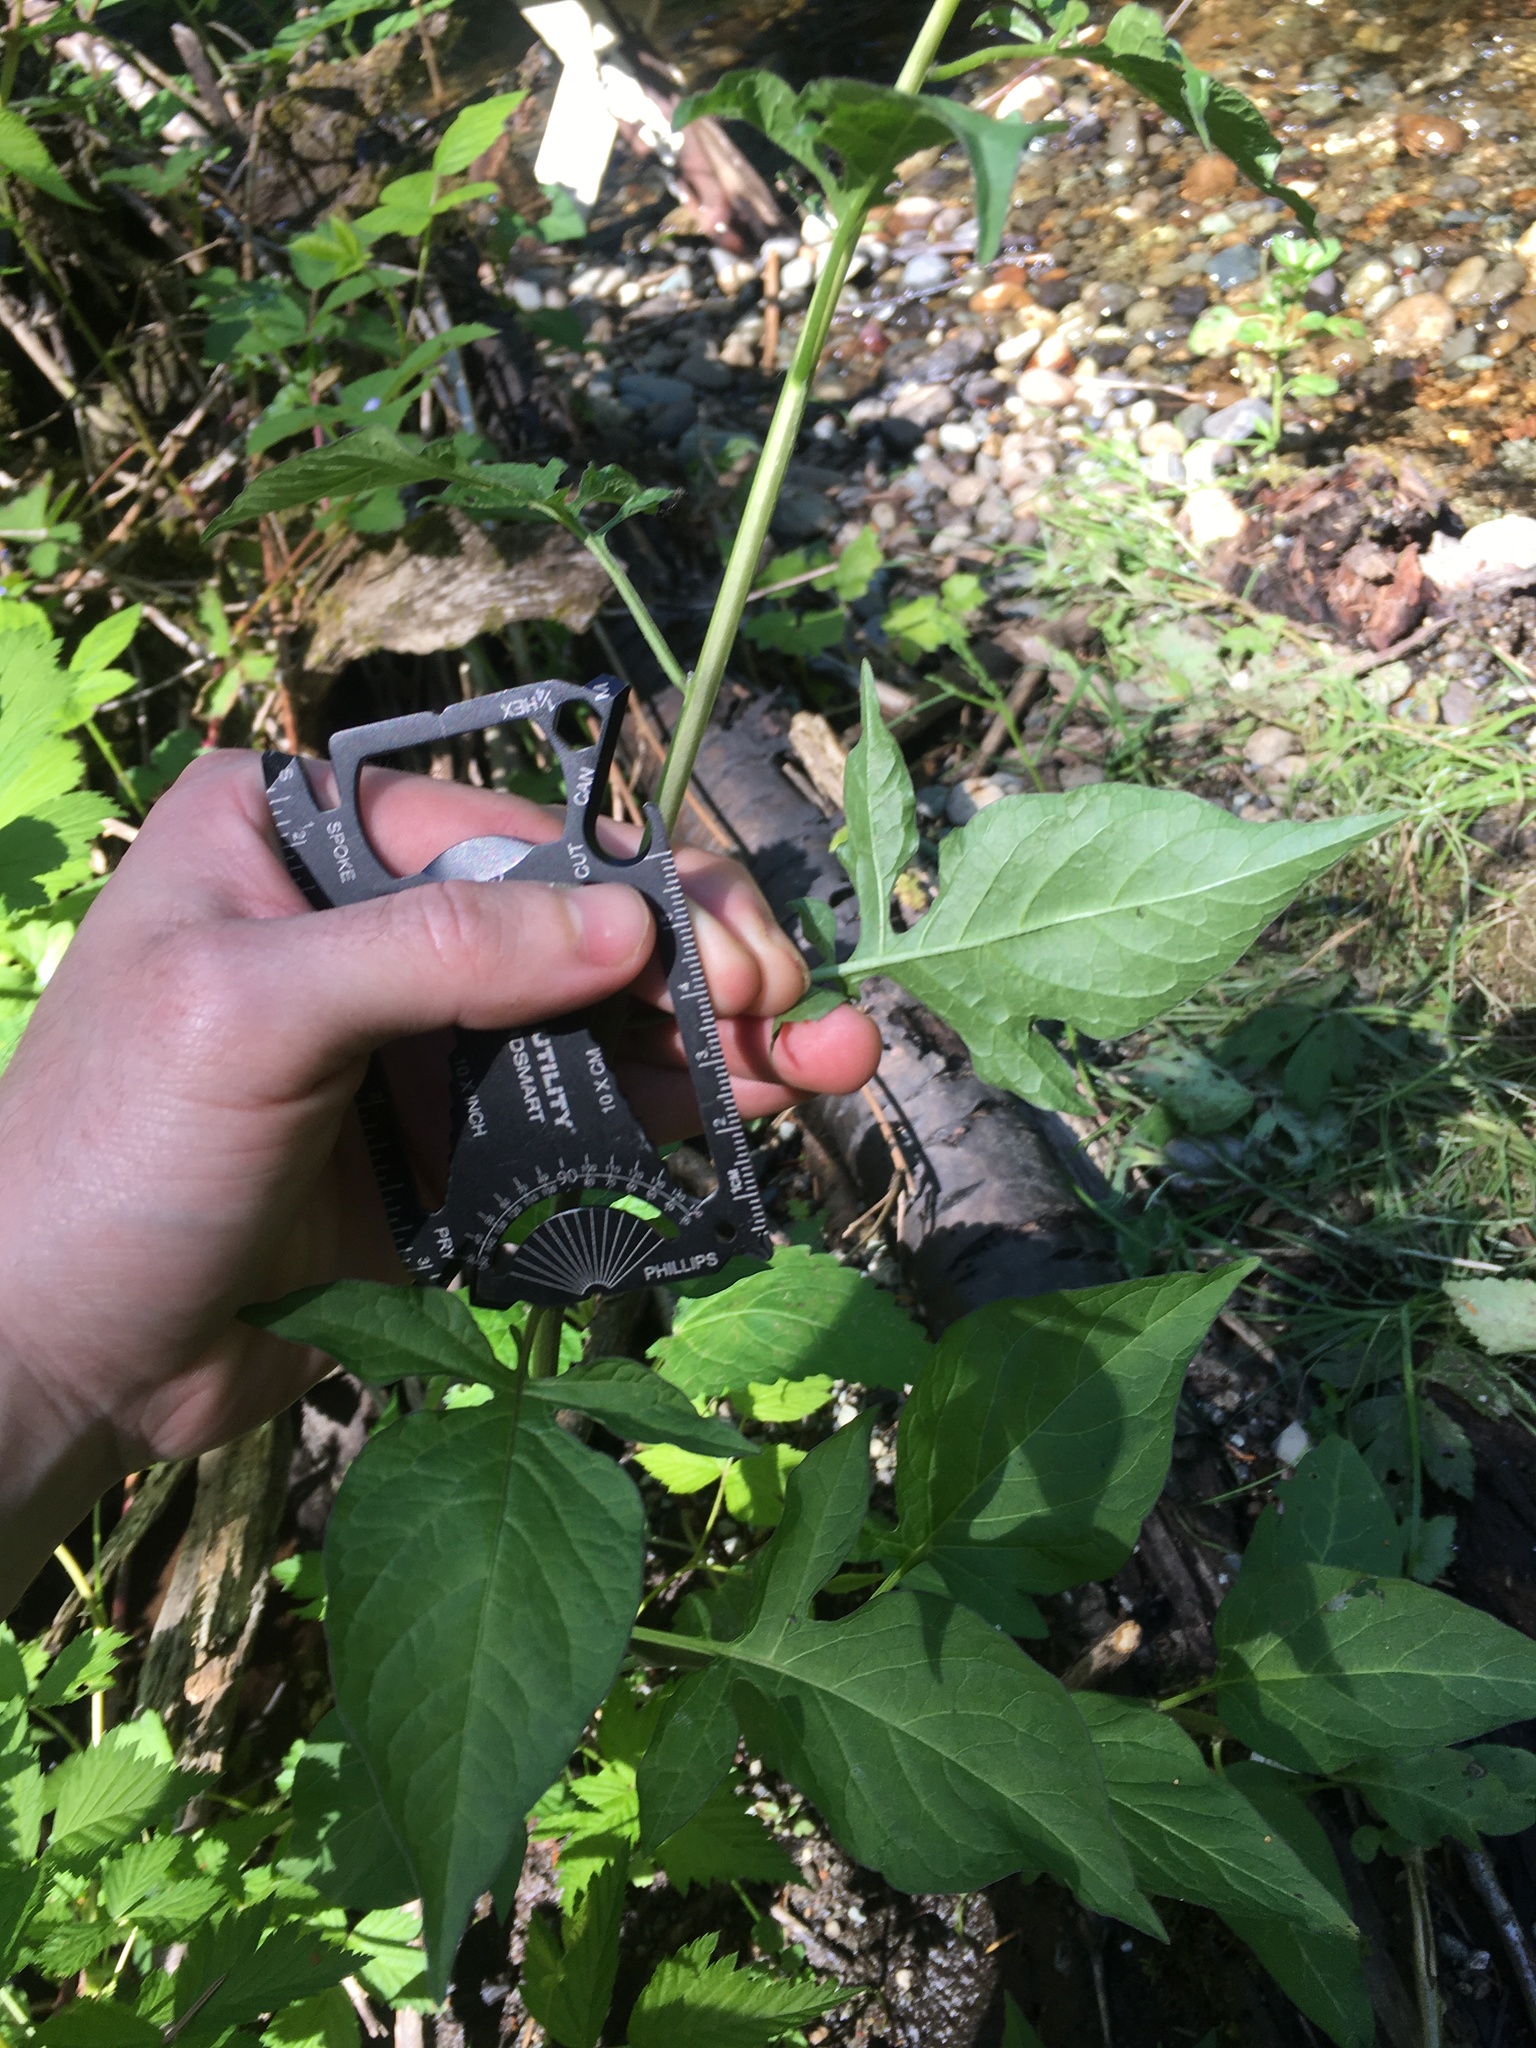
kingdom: Plantae
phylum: Tracheophyta
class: Magnoliopsida
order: Solanales
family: Solanaceae
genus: Solanum
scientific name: Solanum dulcamara
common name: Climbing nightshade
